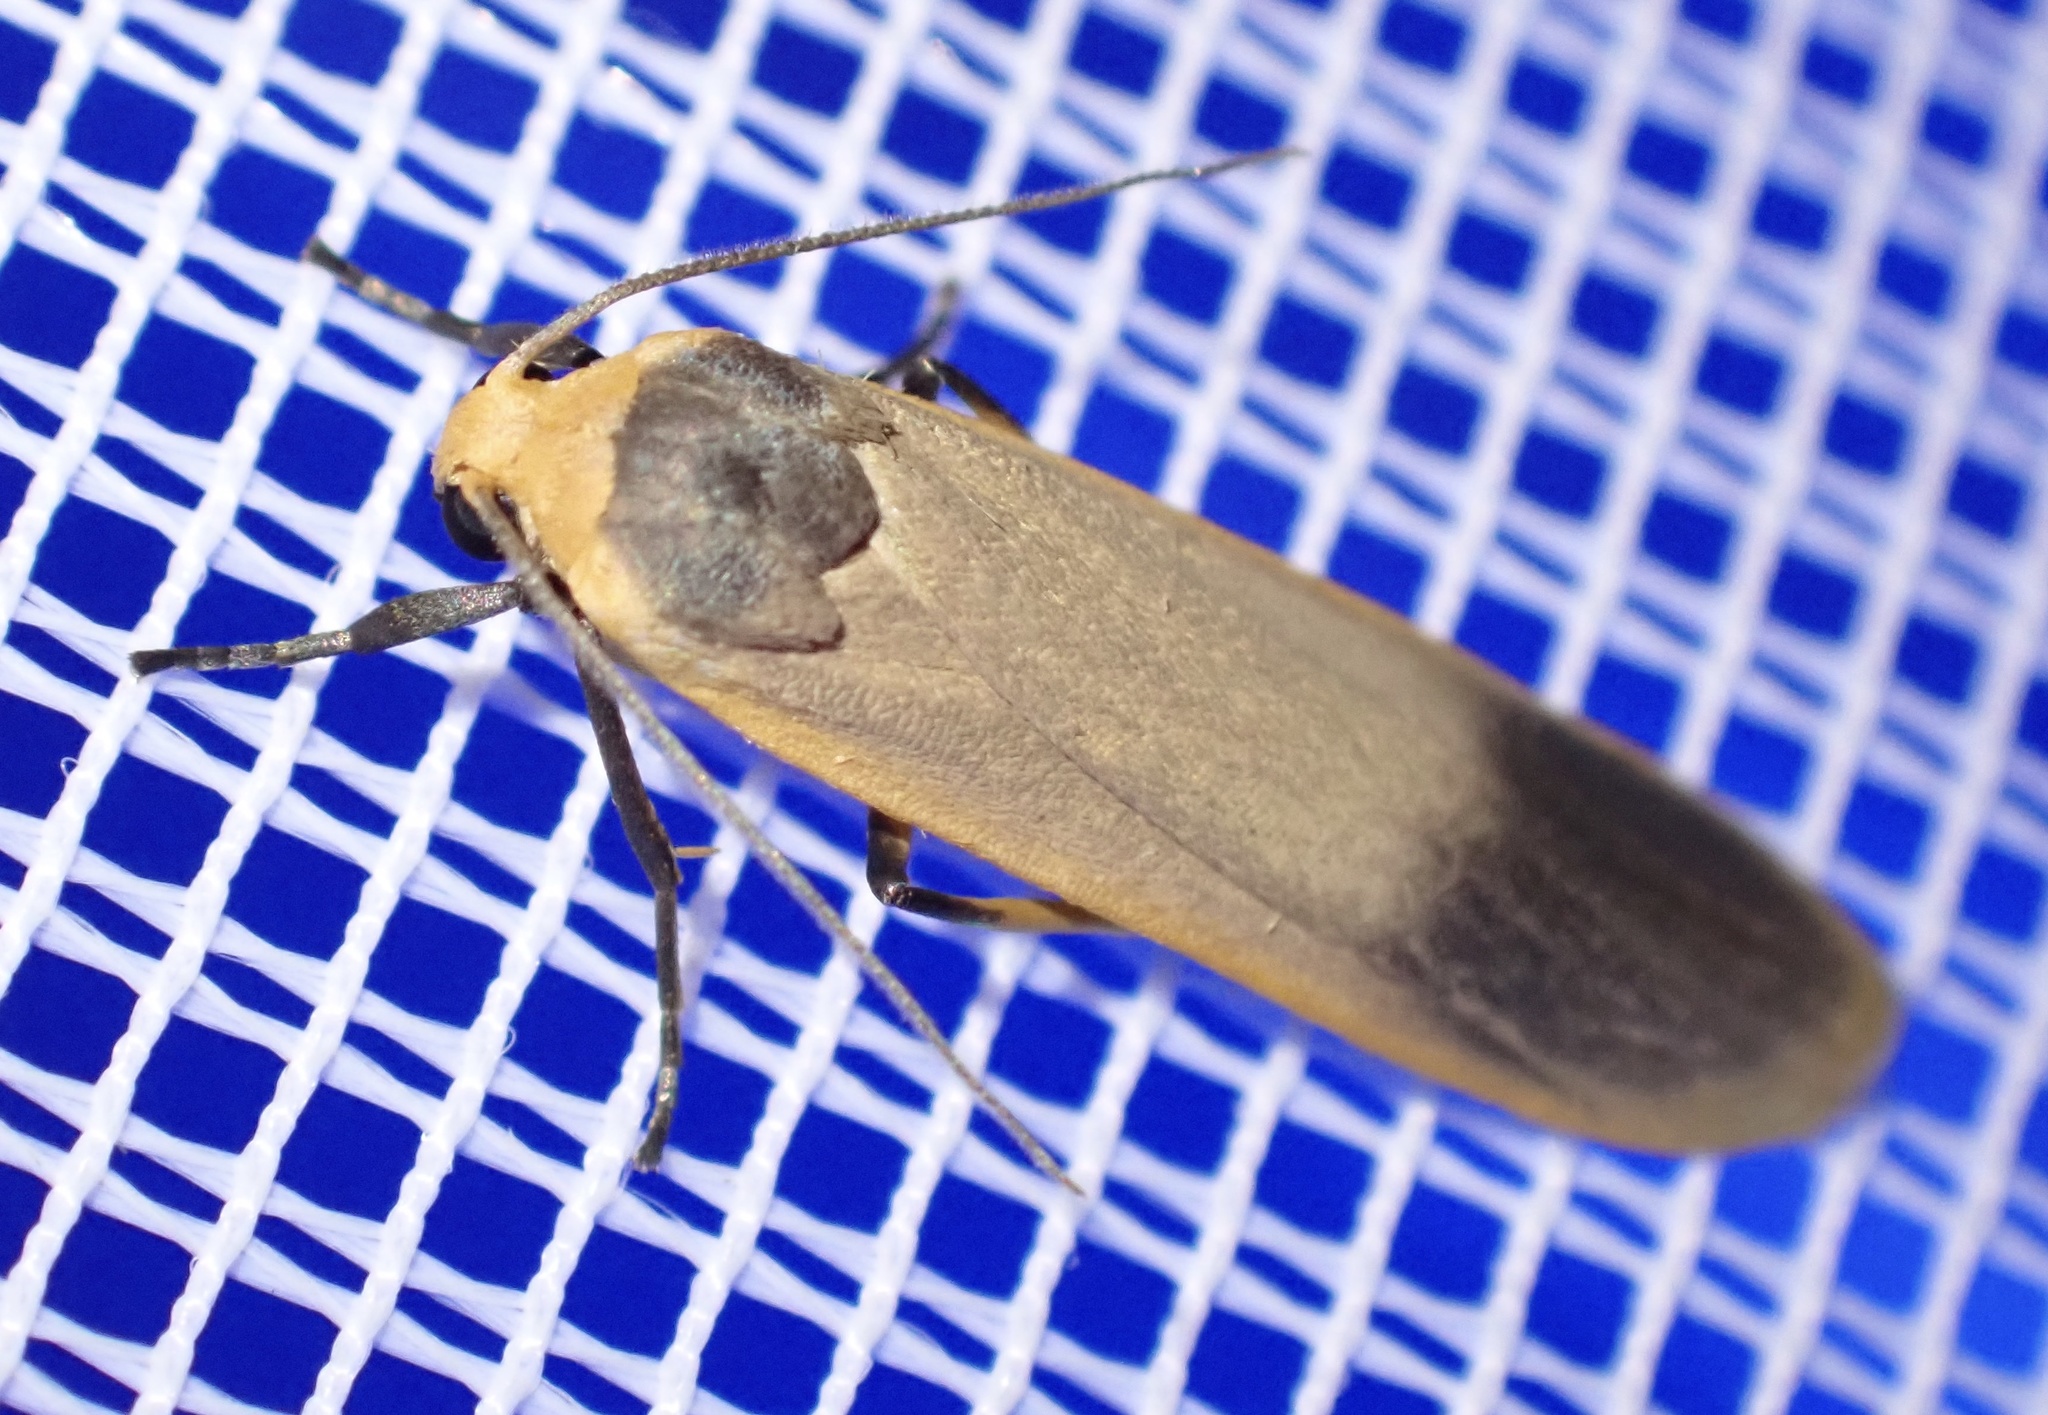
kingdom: Animalia
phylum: Arthropoda
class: Insecta
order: Lepidoptera
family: Erebidae
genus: Brunia
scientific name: Brunia vicaria
